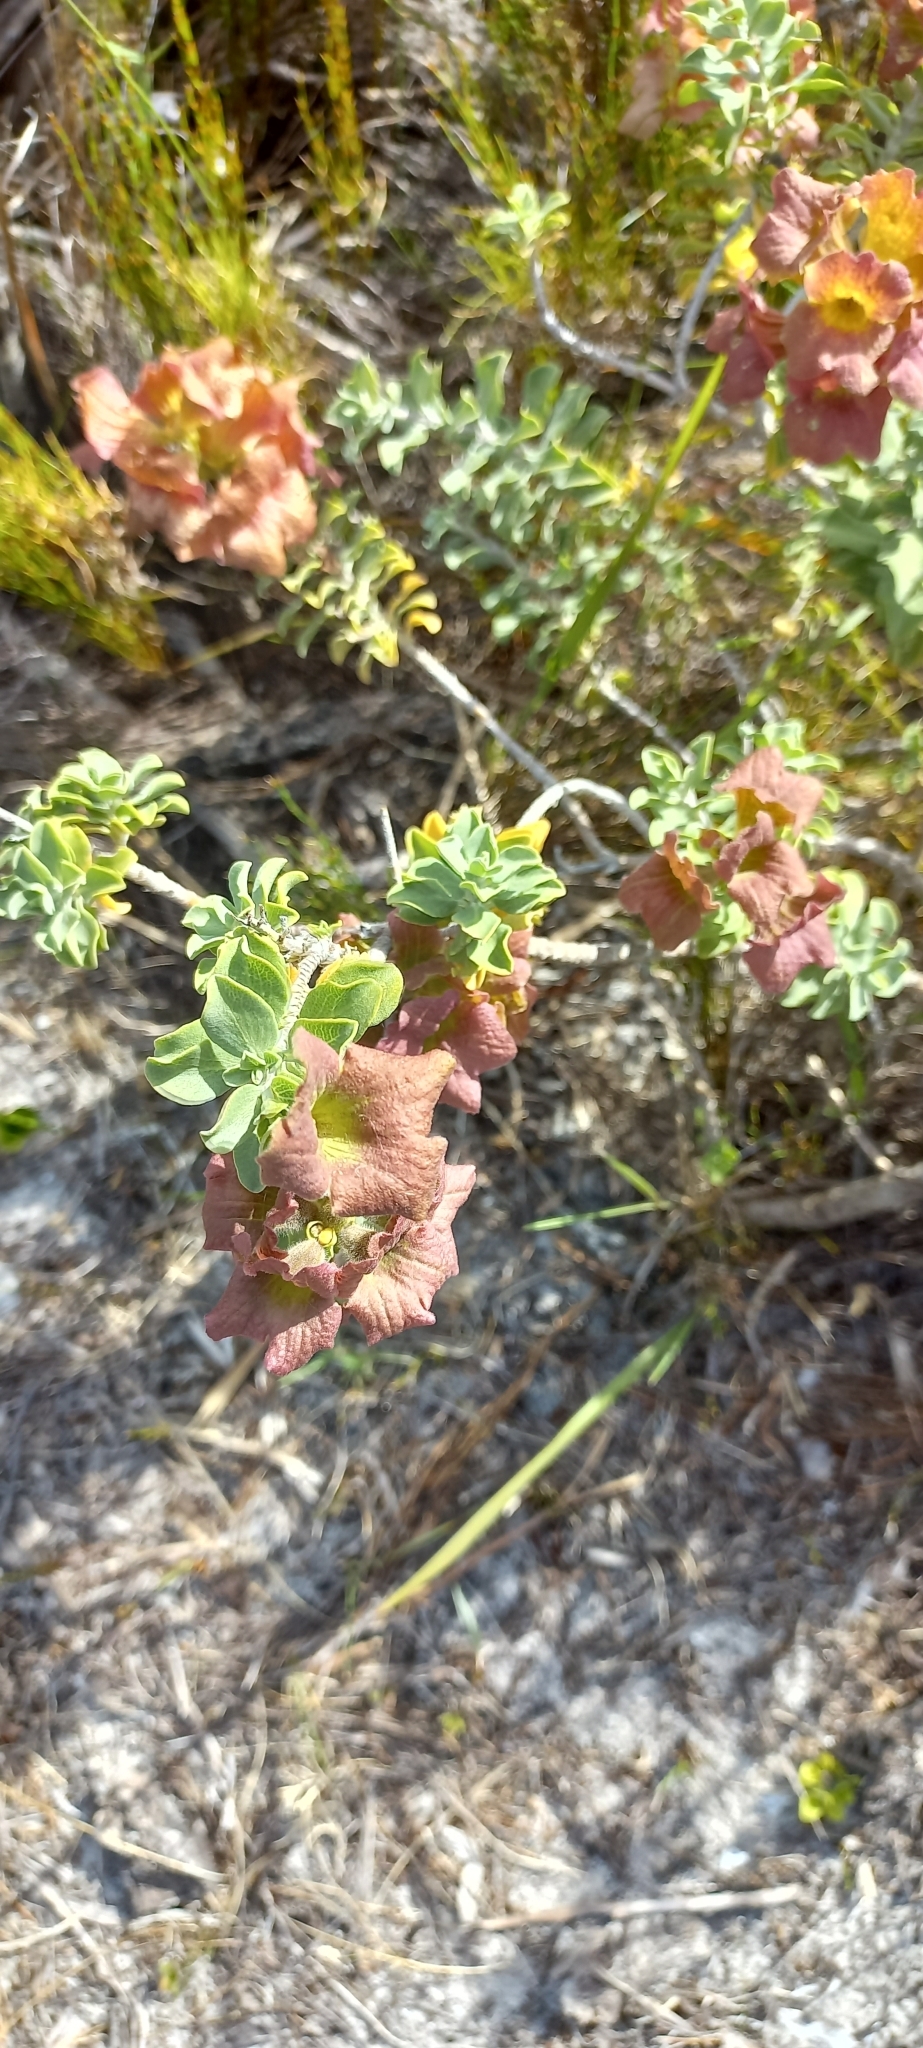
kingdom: Plantae
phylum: Tracheophyta
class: Magnoliopsida
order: Lamiales
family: Lamiaceae
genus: Salvia
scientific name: Salvia aurea
